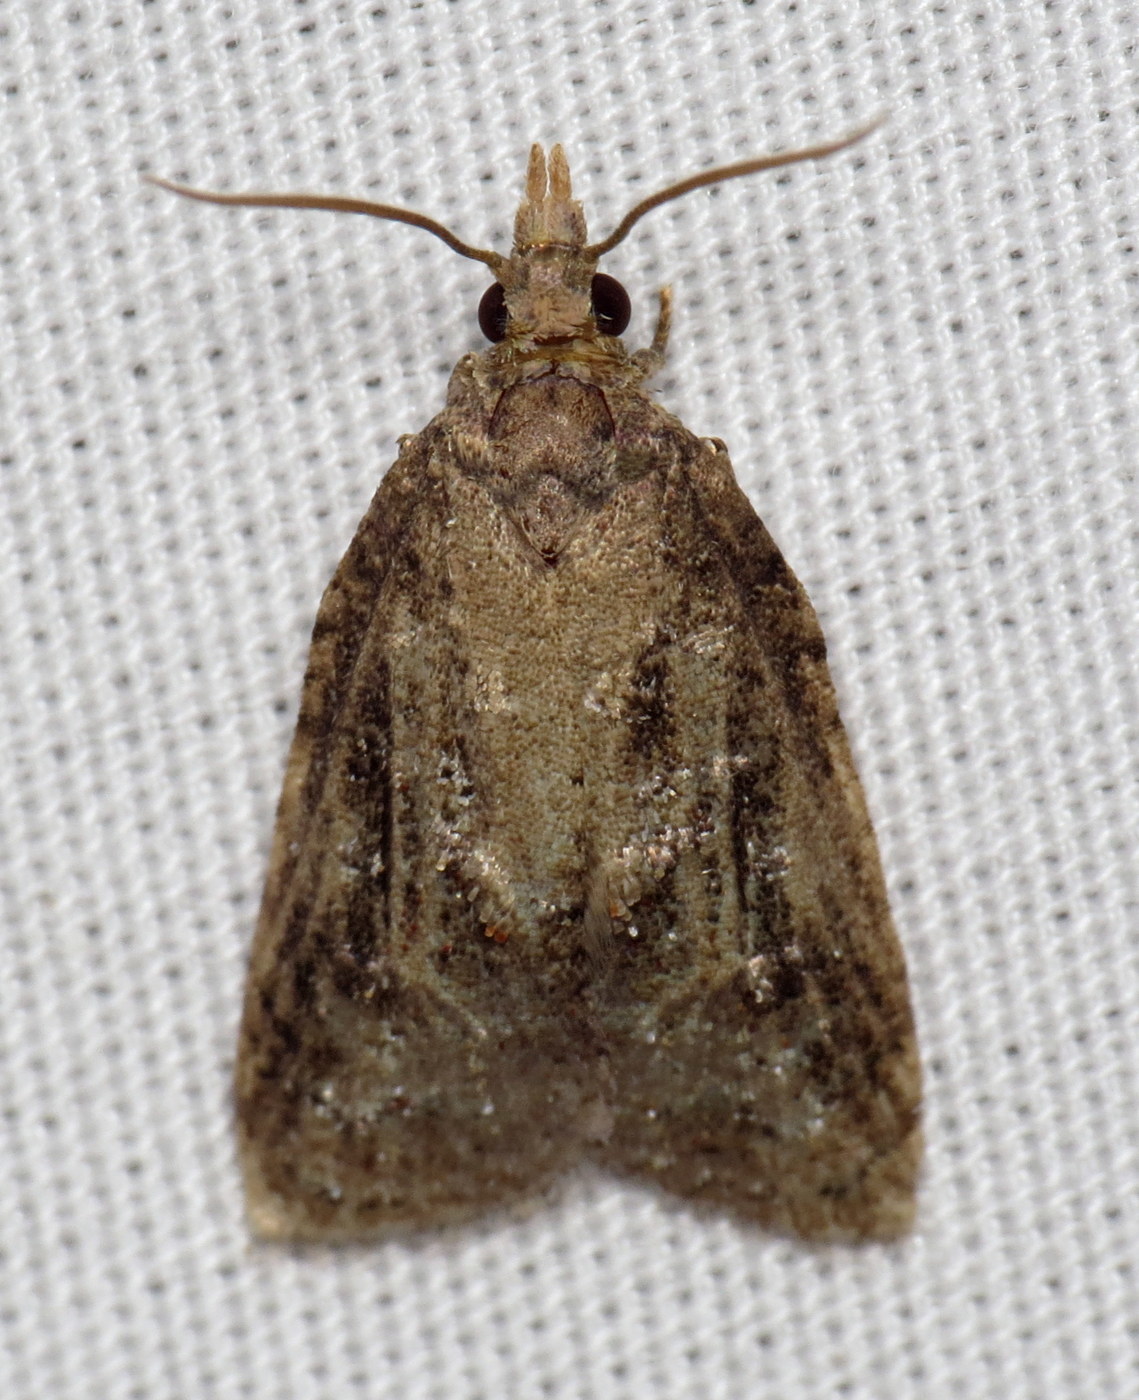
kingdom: Animalia
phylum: Arthropoda
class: Insecta
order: Lepidoptera
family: Tortricidae
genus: Platynota
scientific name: Platynota idaeusalis
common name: Tufted apple bud moth
